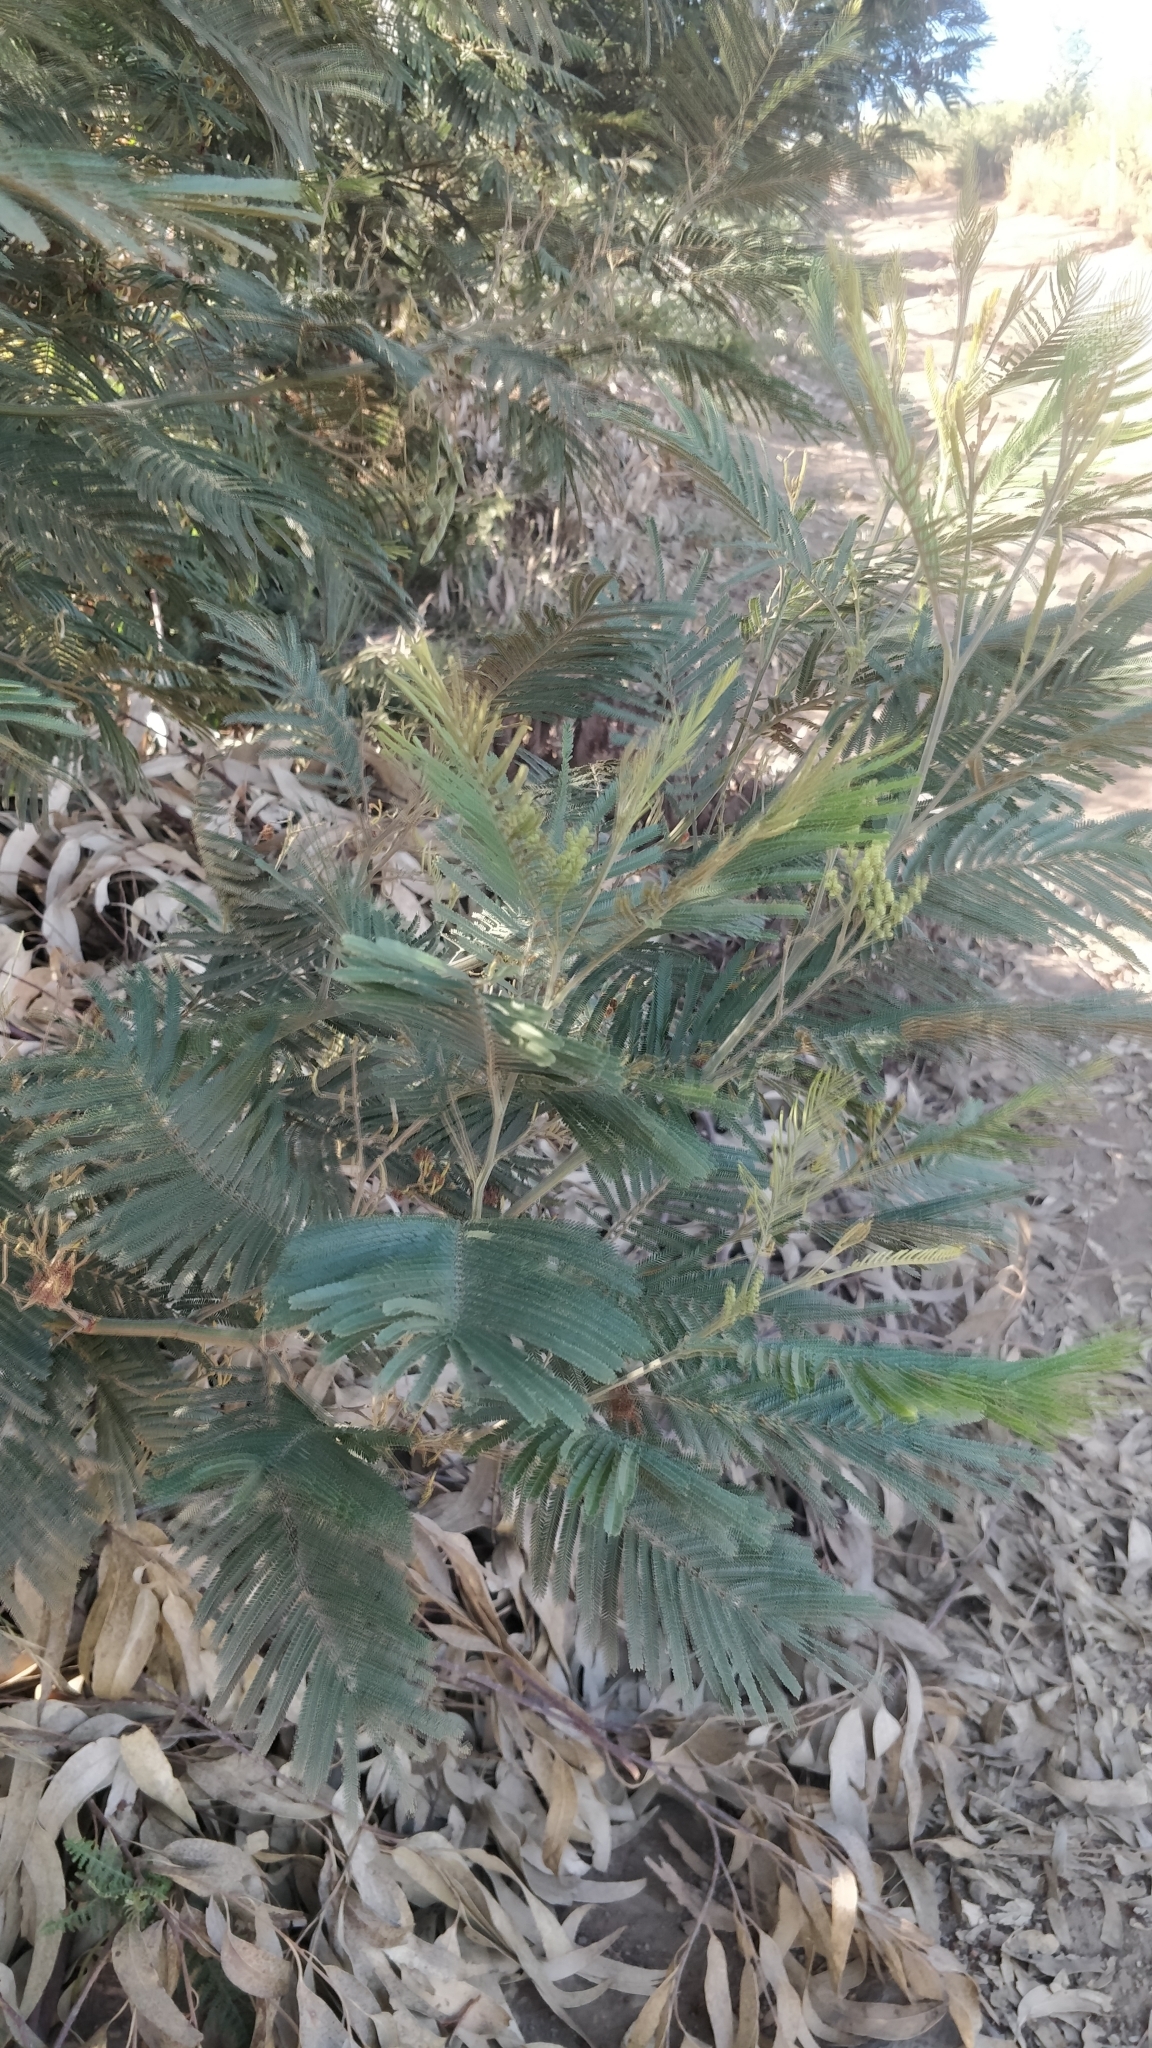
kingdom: Plantae
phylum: Tracheophyta
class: Magnoliopsida
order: Fabales
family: Fabaceae
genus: Acacia
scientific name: Acacia mearnsii
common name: Black wattle
